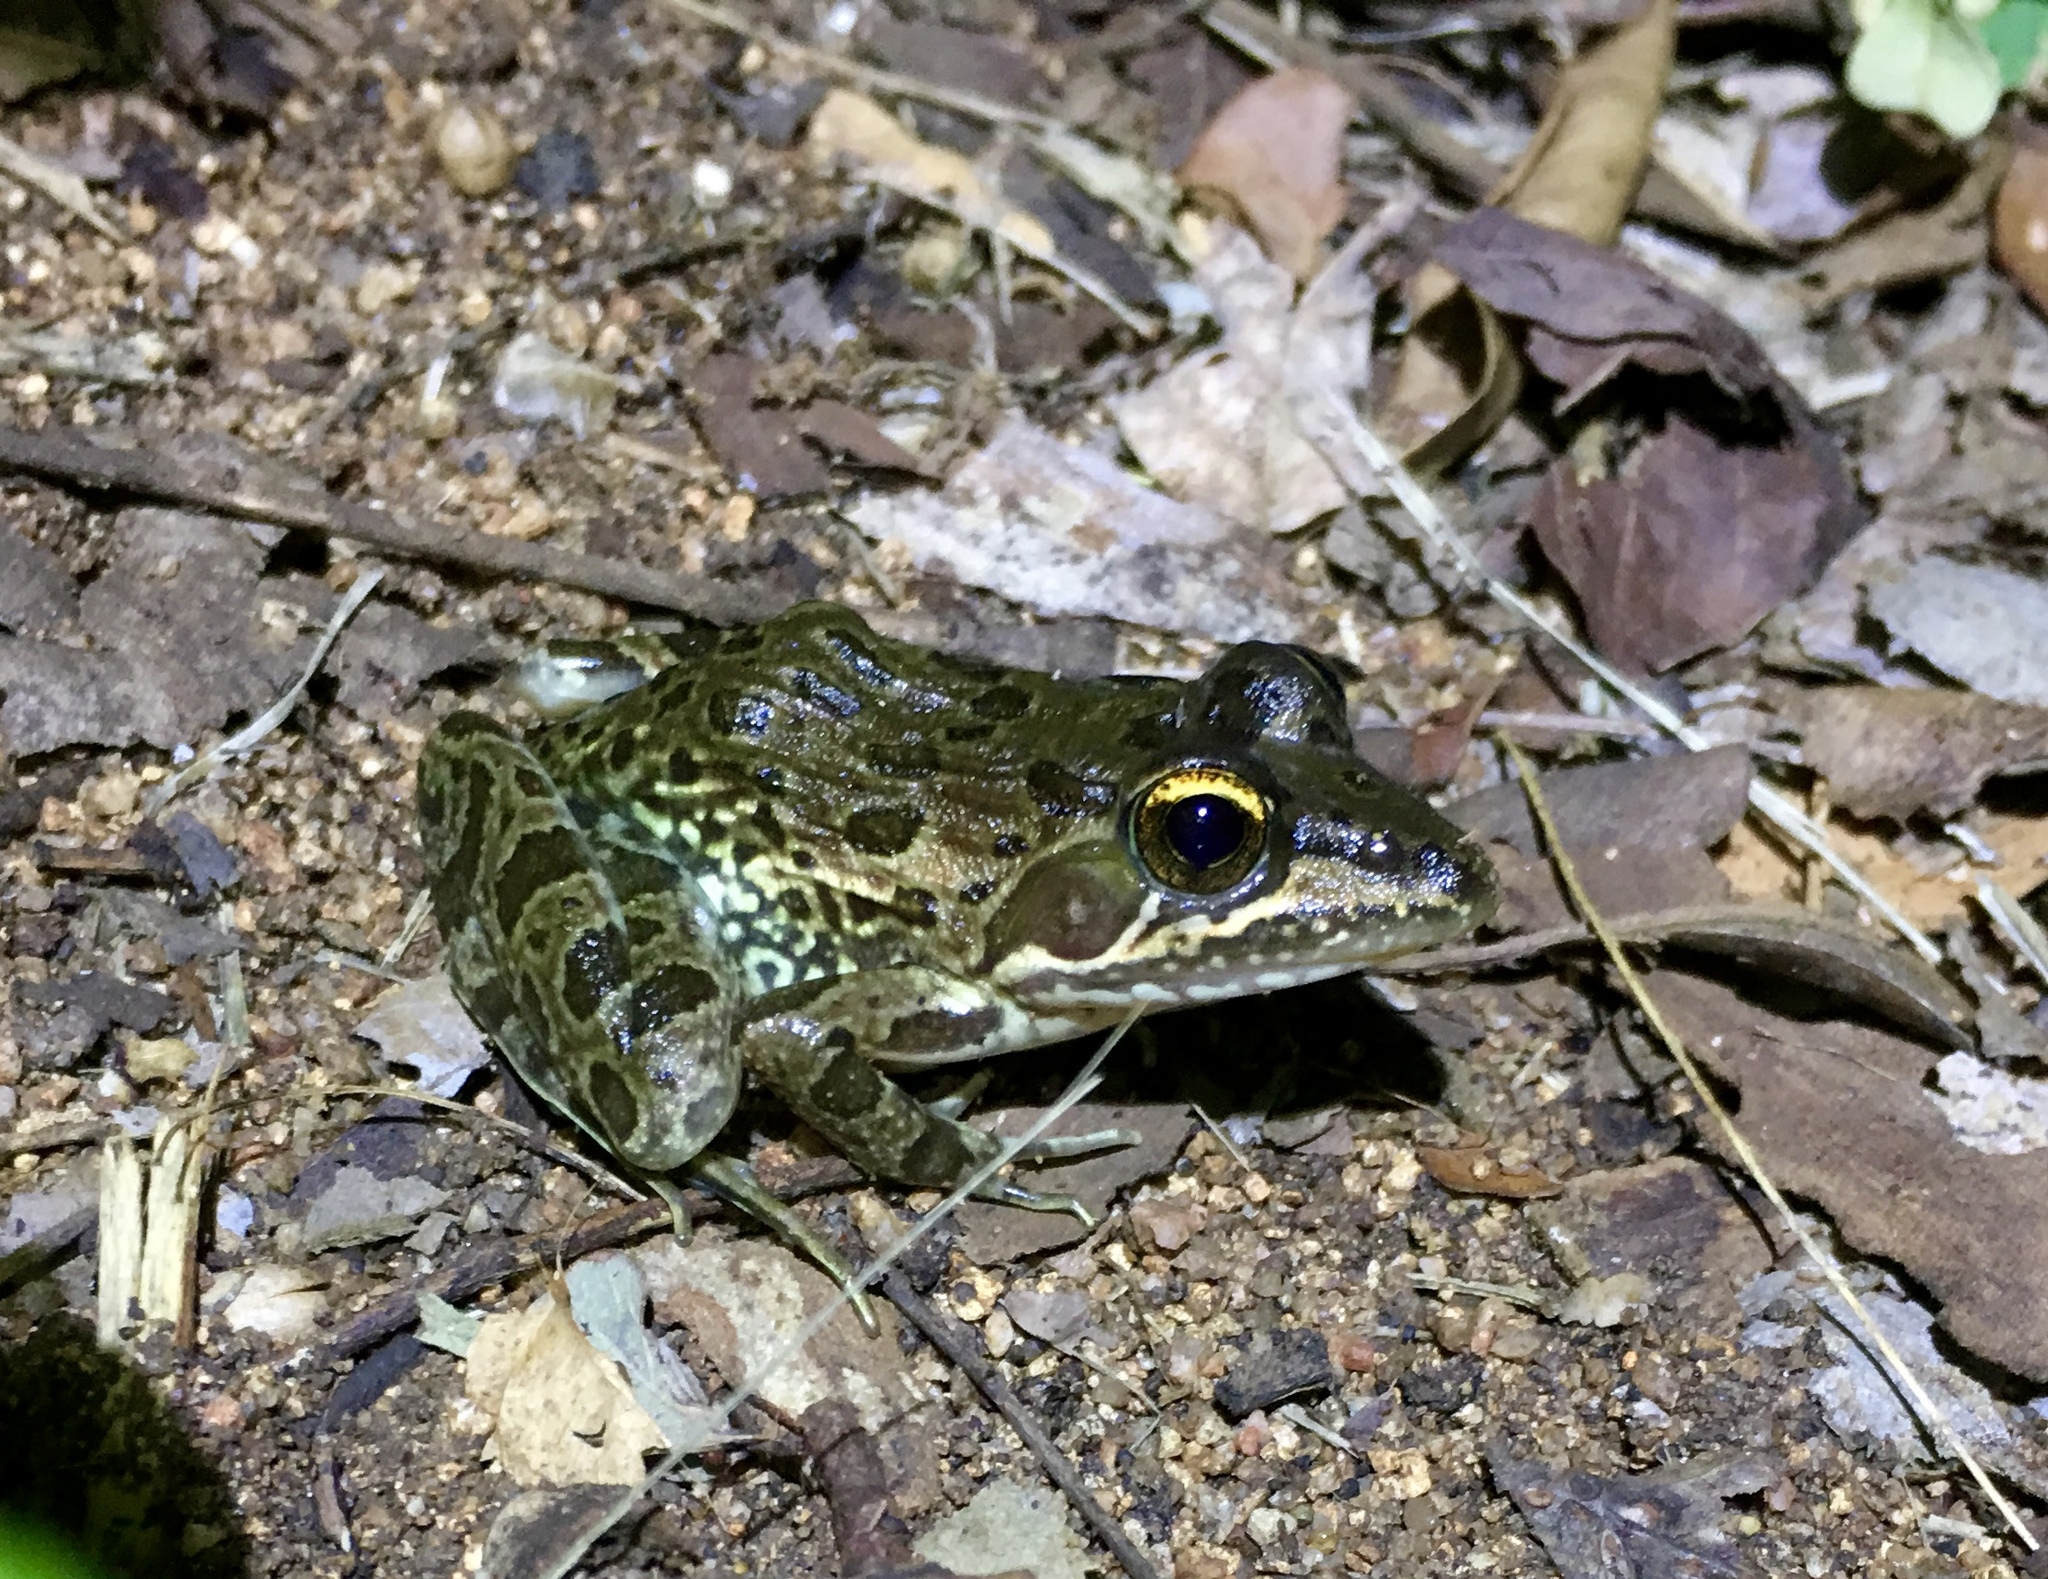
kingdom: Animalia
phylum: Chordata
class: Amphibia
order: Anura
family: Pyxicephalidae
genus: Amietia
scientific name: Amietia delalandii
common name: Delalande's river frog
